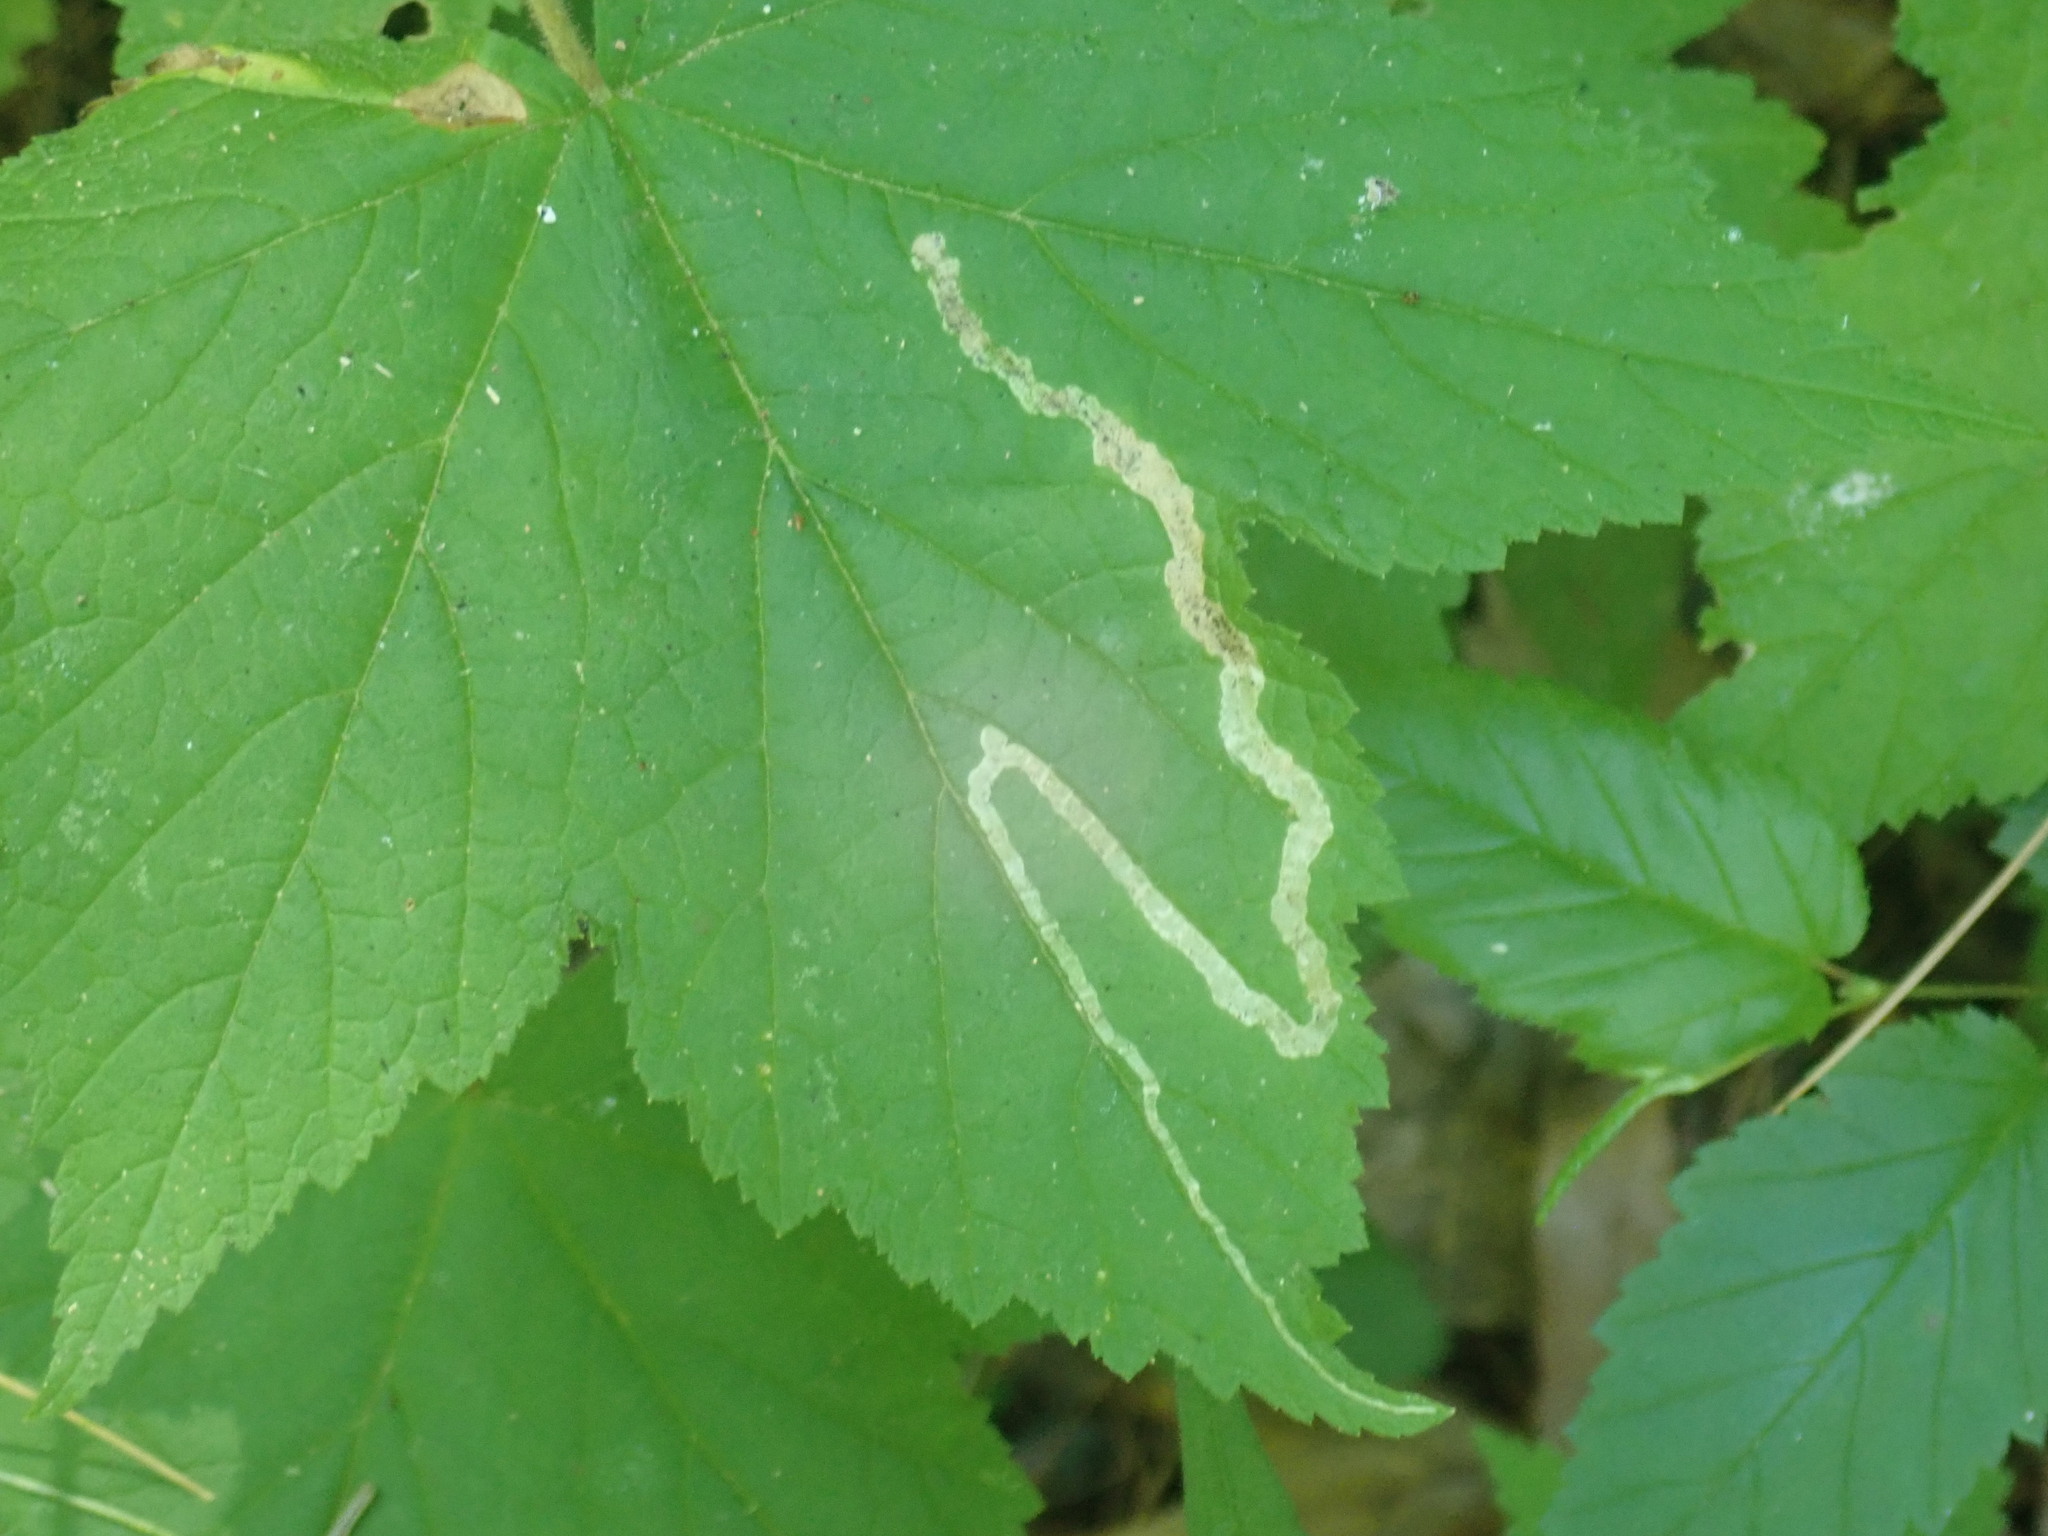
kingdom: Animalia
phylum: Arthropoda
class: Insecta
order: Diptera
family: Agromyzidae
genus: Agromyza
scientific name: Agromyza vockerothi
